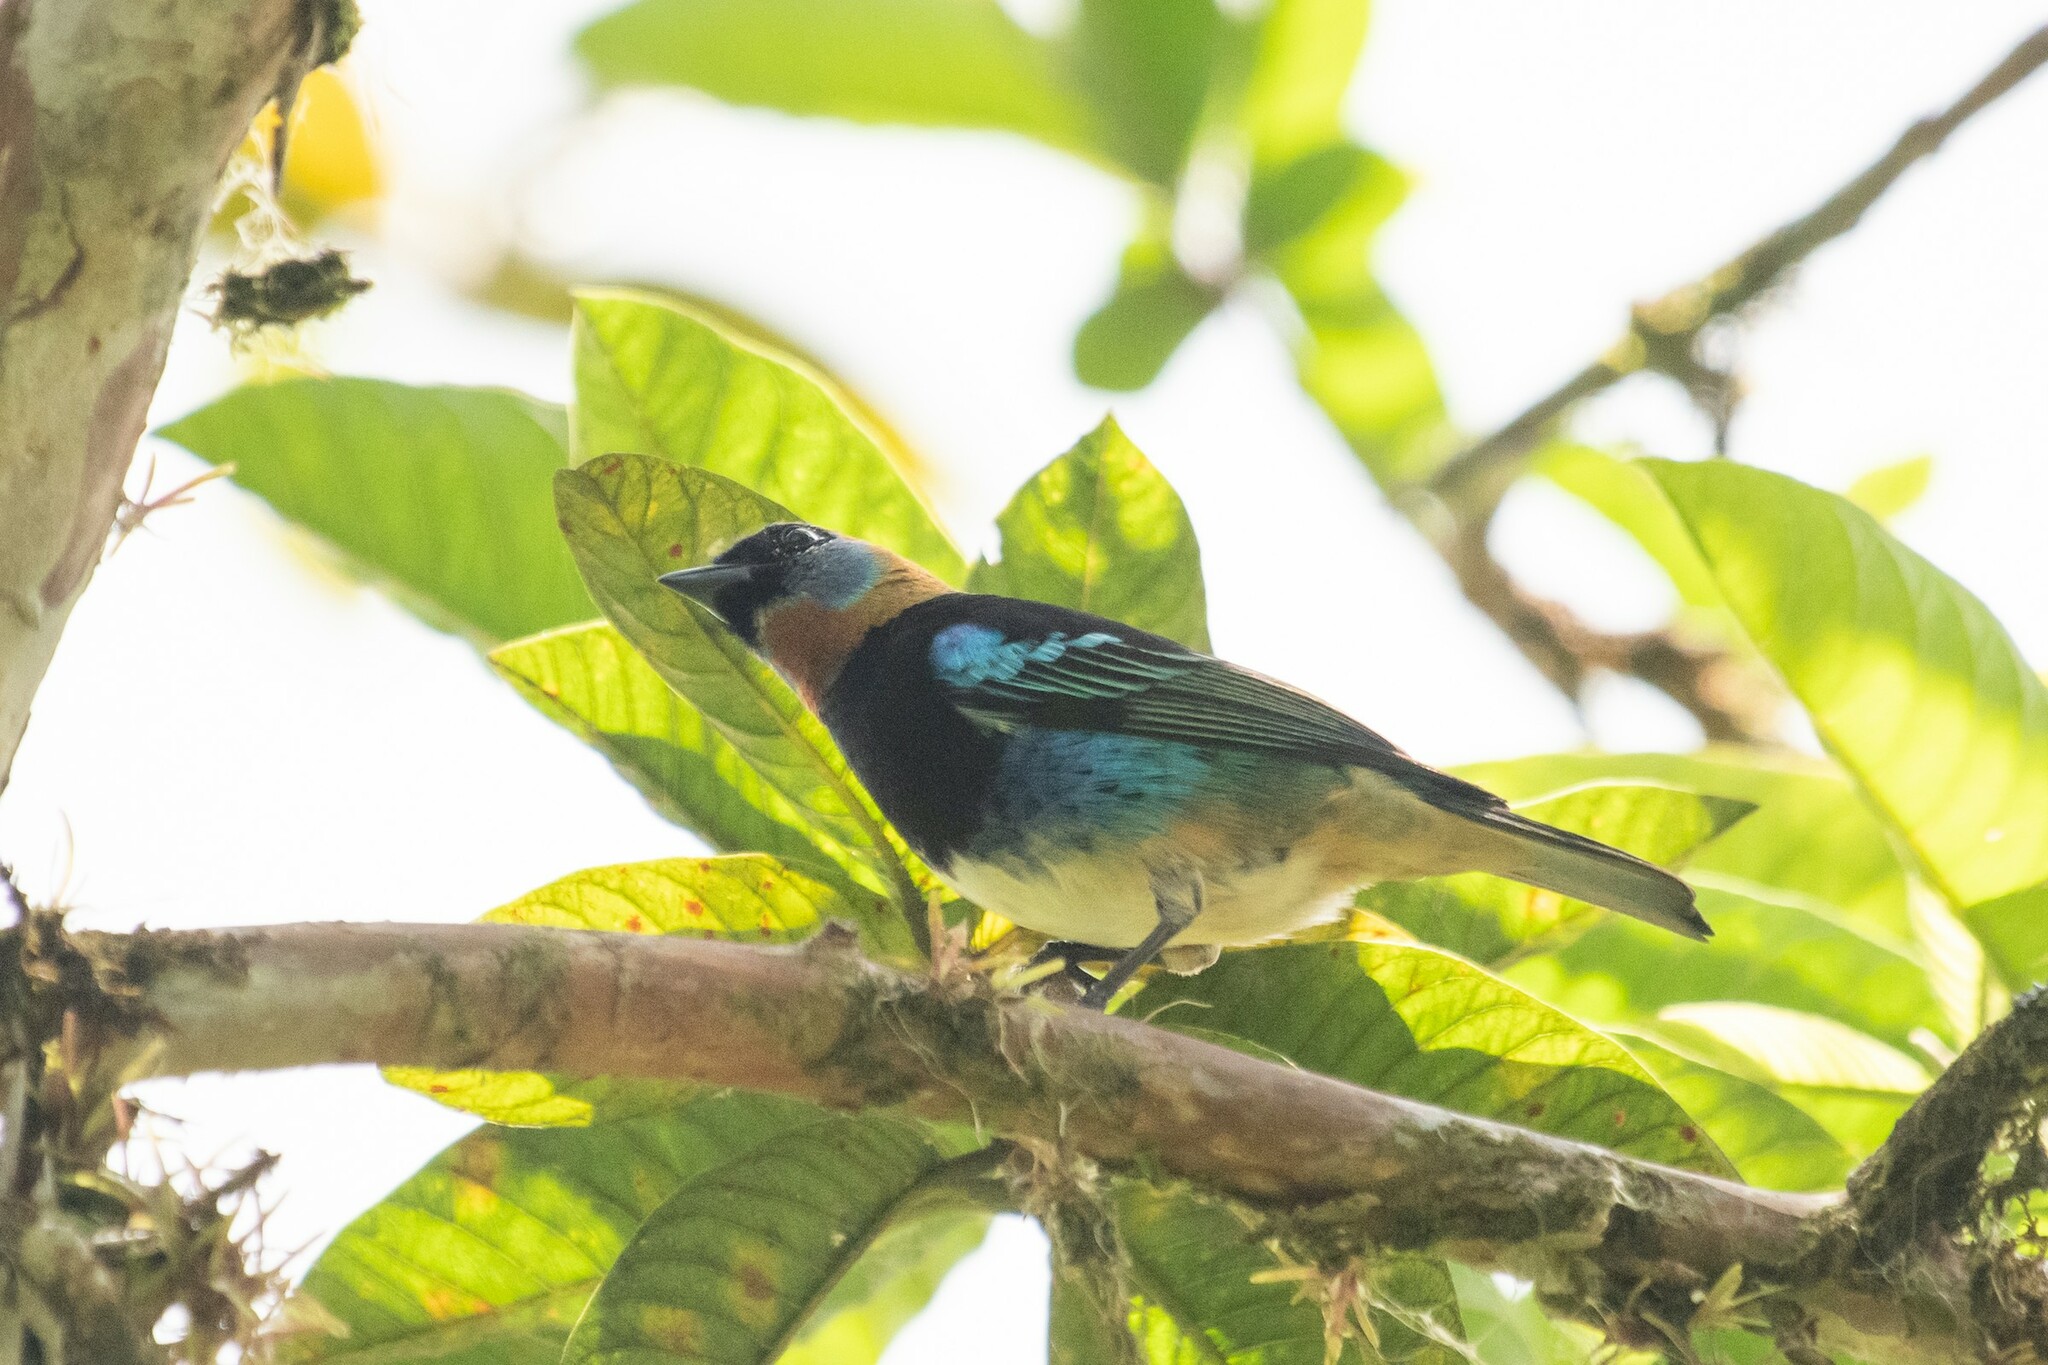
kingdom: Animalia
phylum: Chordata
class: Aves
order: Passeriformes
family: Thraupidae
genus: Stilpnia
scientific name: Stilpnia larvata
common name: Golden-hooded tanager
